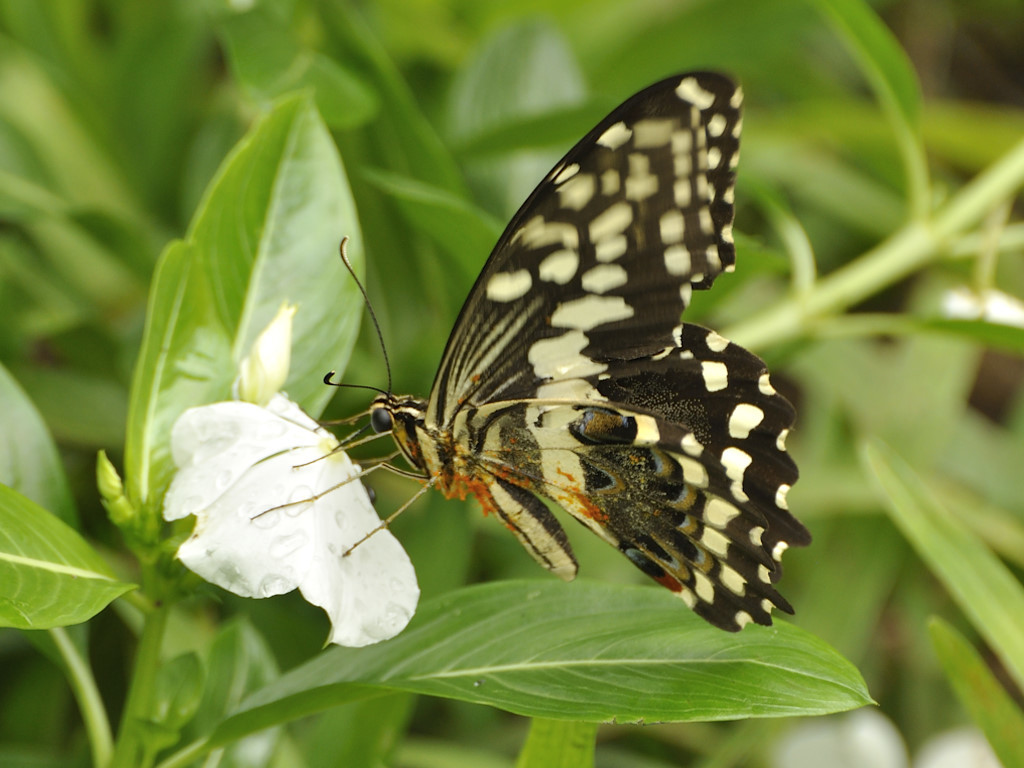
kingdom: Animalia
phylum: Arthropoda
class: Insecta
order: Lepidoptera
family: Papilionidae
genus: Papilio
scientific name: Papilio demodocus
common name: Christmas butterfly
